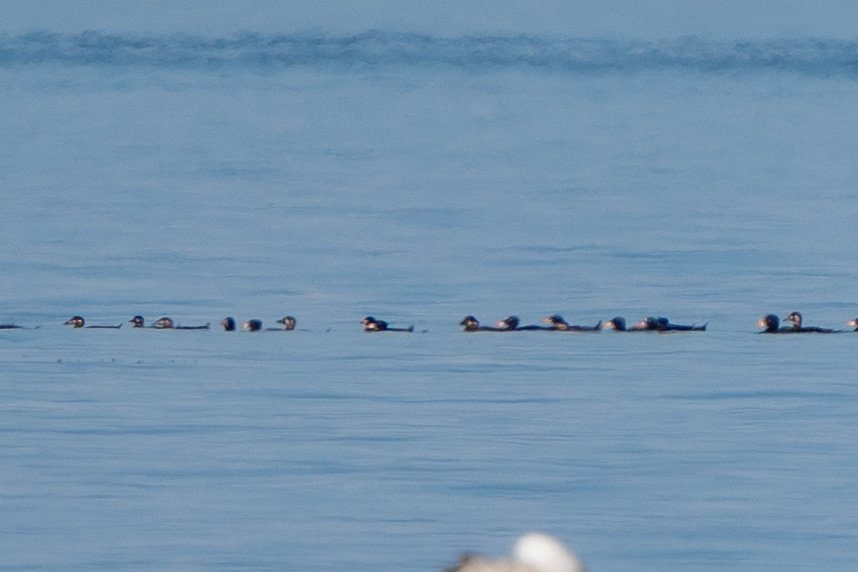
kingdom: Animalia
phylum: Chordata
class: Aves
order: Anseriformes
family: Anatidae
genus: Melanitta
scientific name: Melanitta perspicillata
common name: Surf scoter
